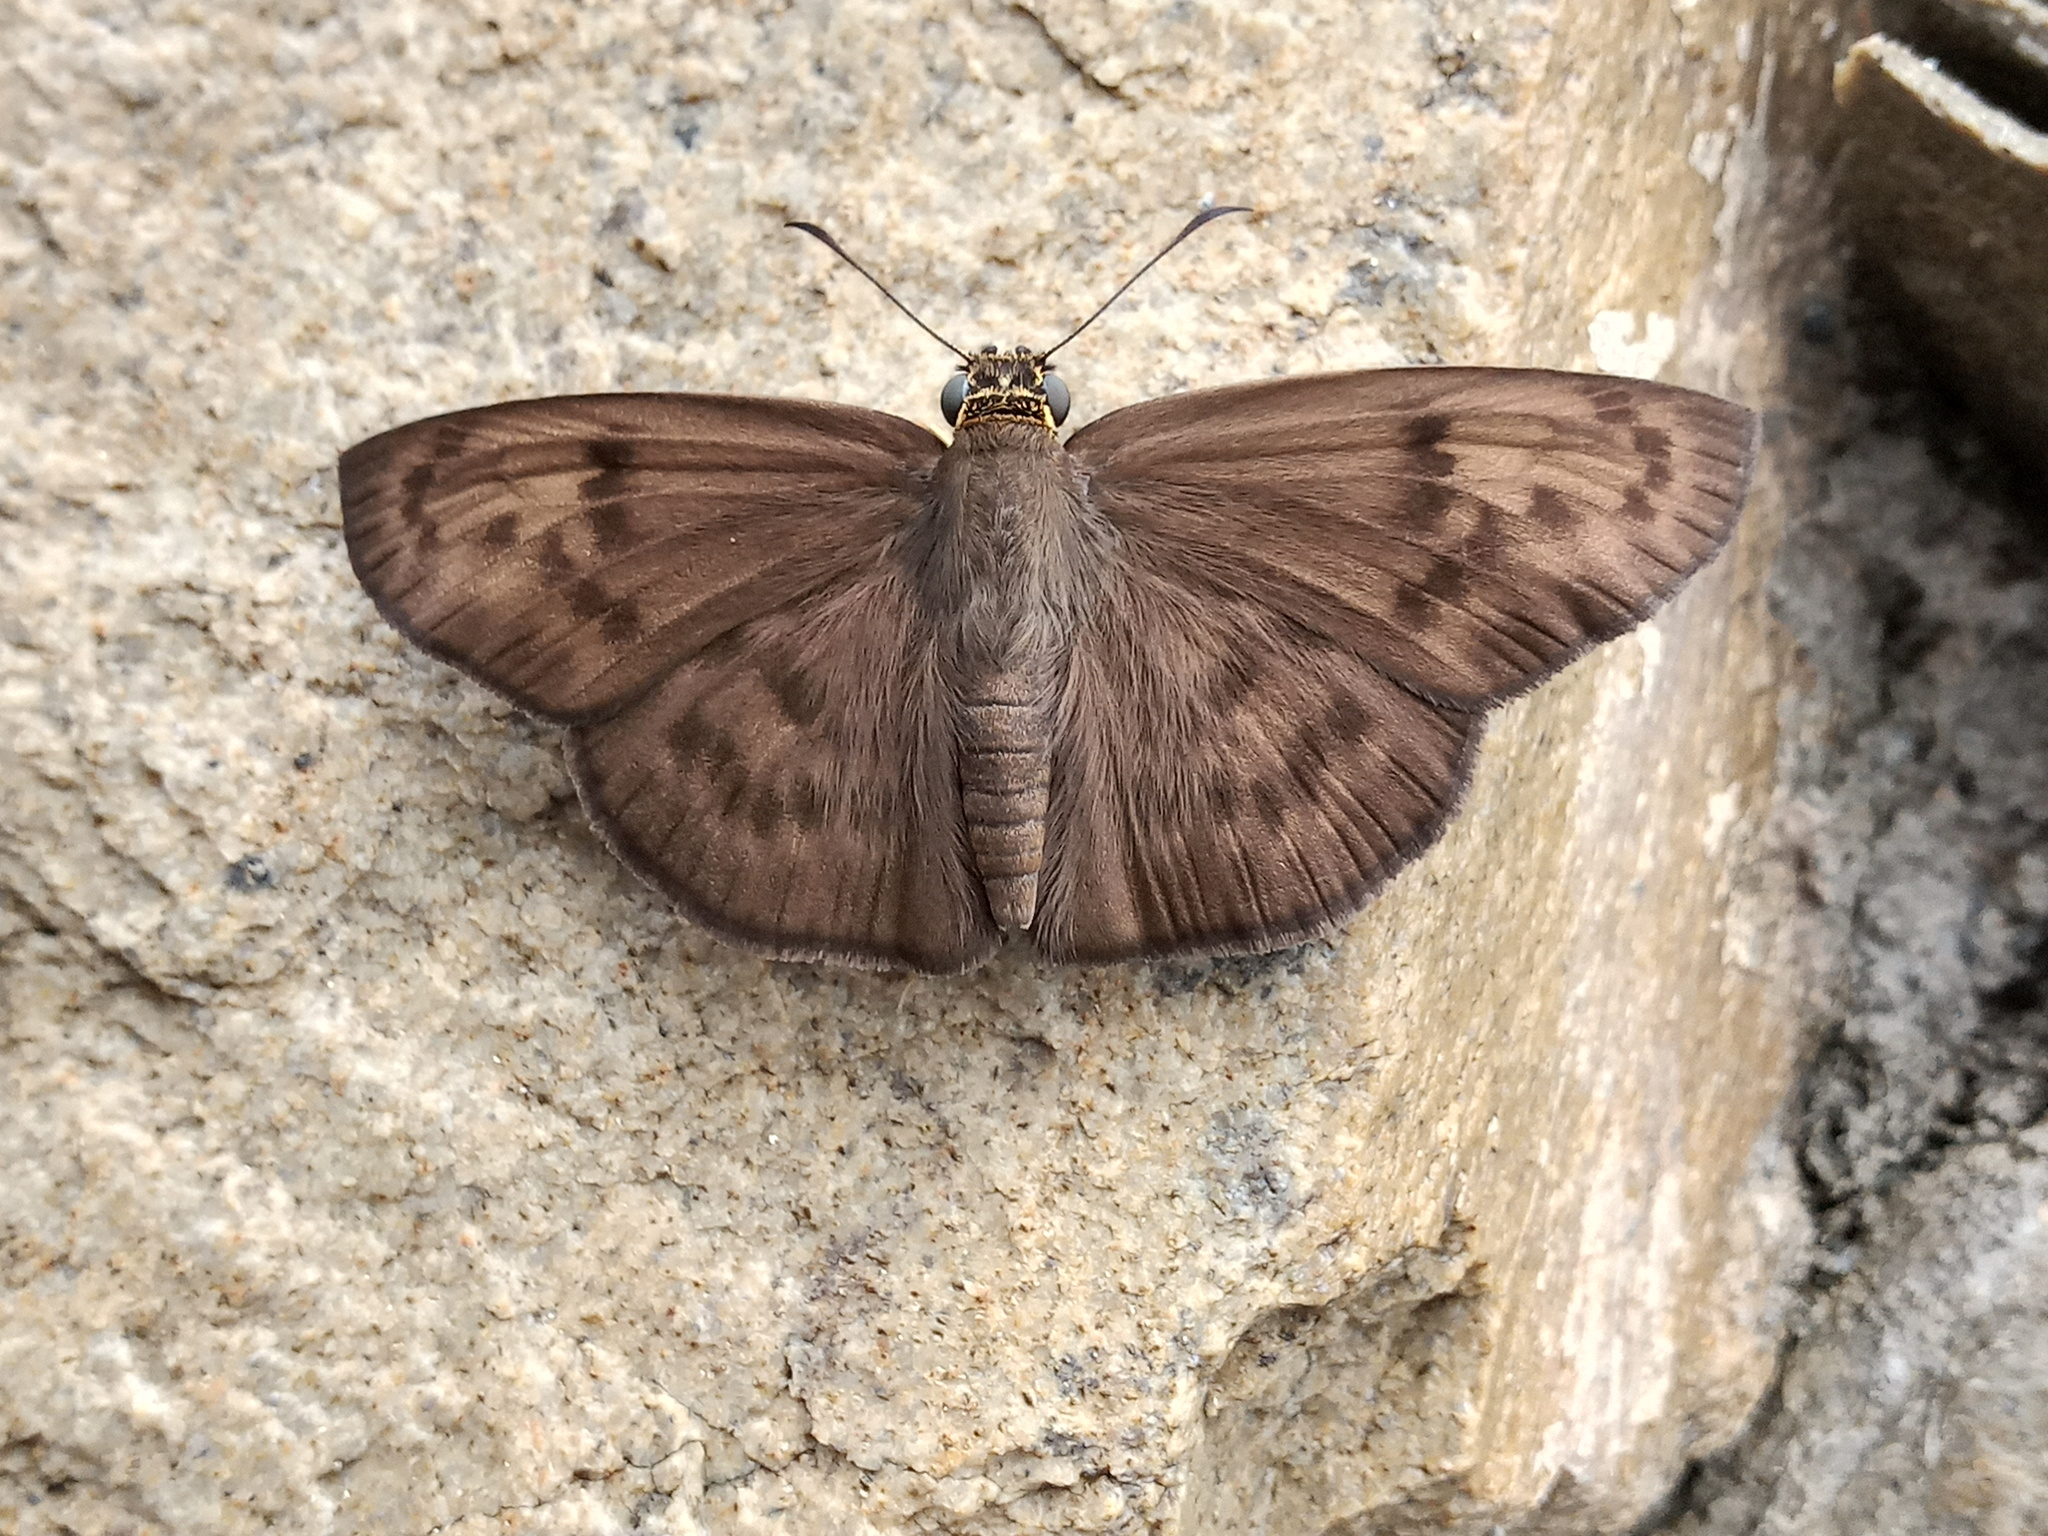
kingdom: Animalia
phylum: Arthropoda
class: Insecta
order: Lepidoptera
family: Hesperiidae
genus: Grais
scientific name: Grais stigmaticus
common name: Hermit skipper
